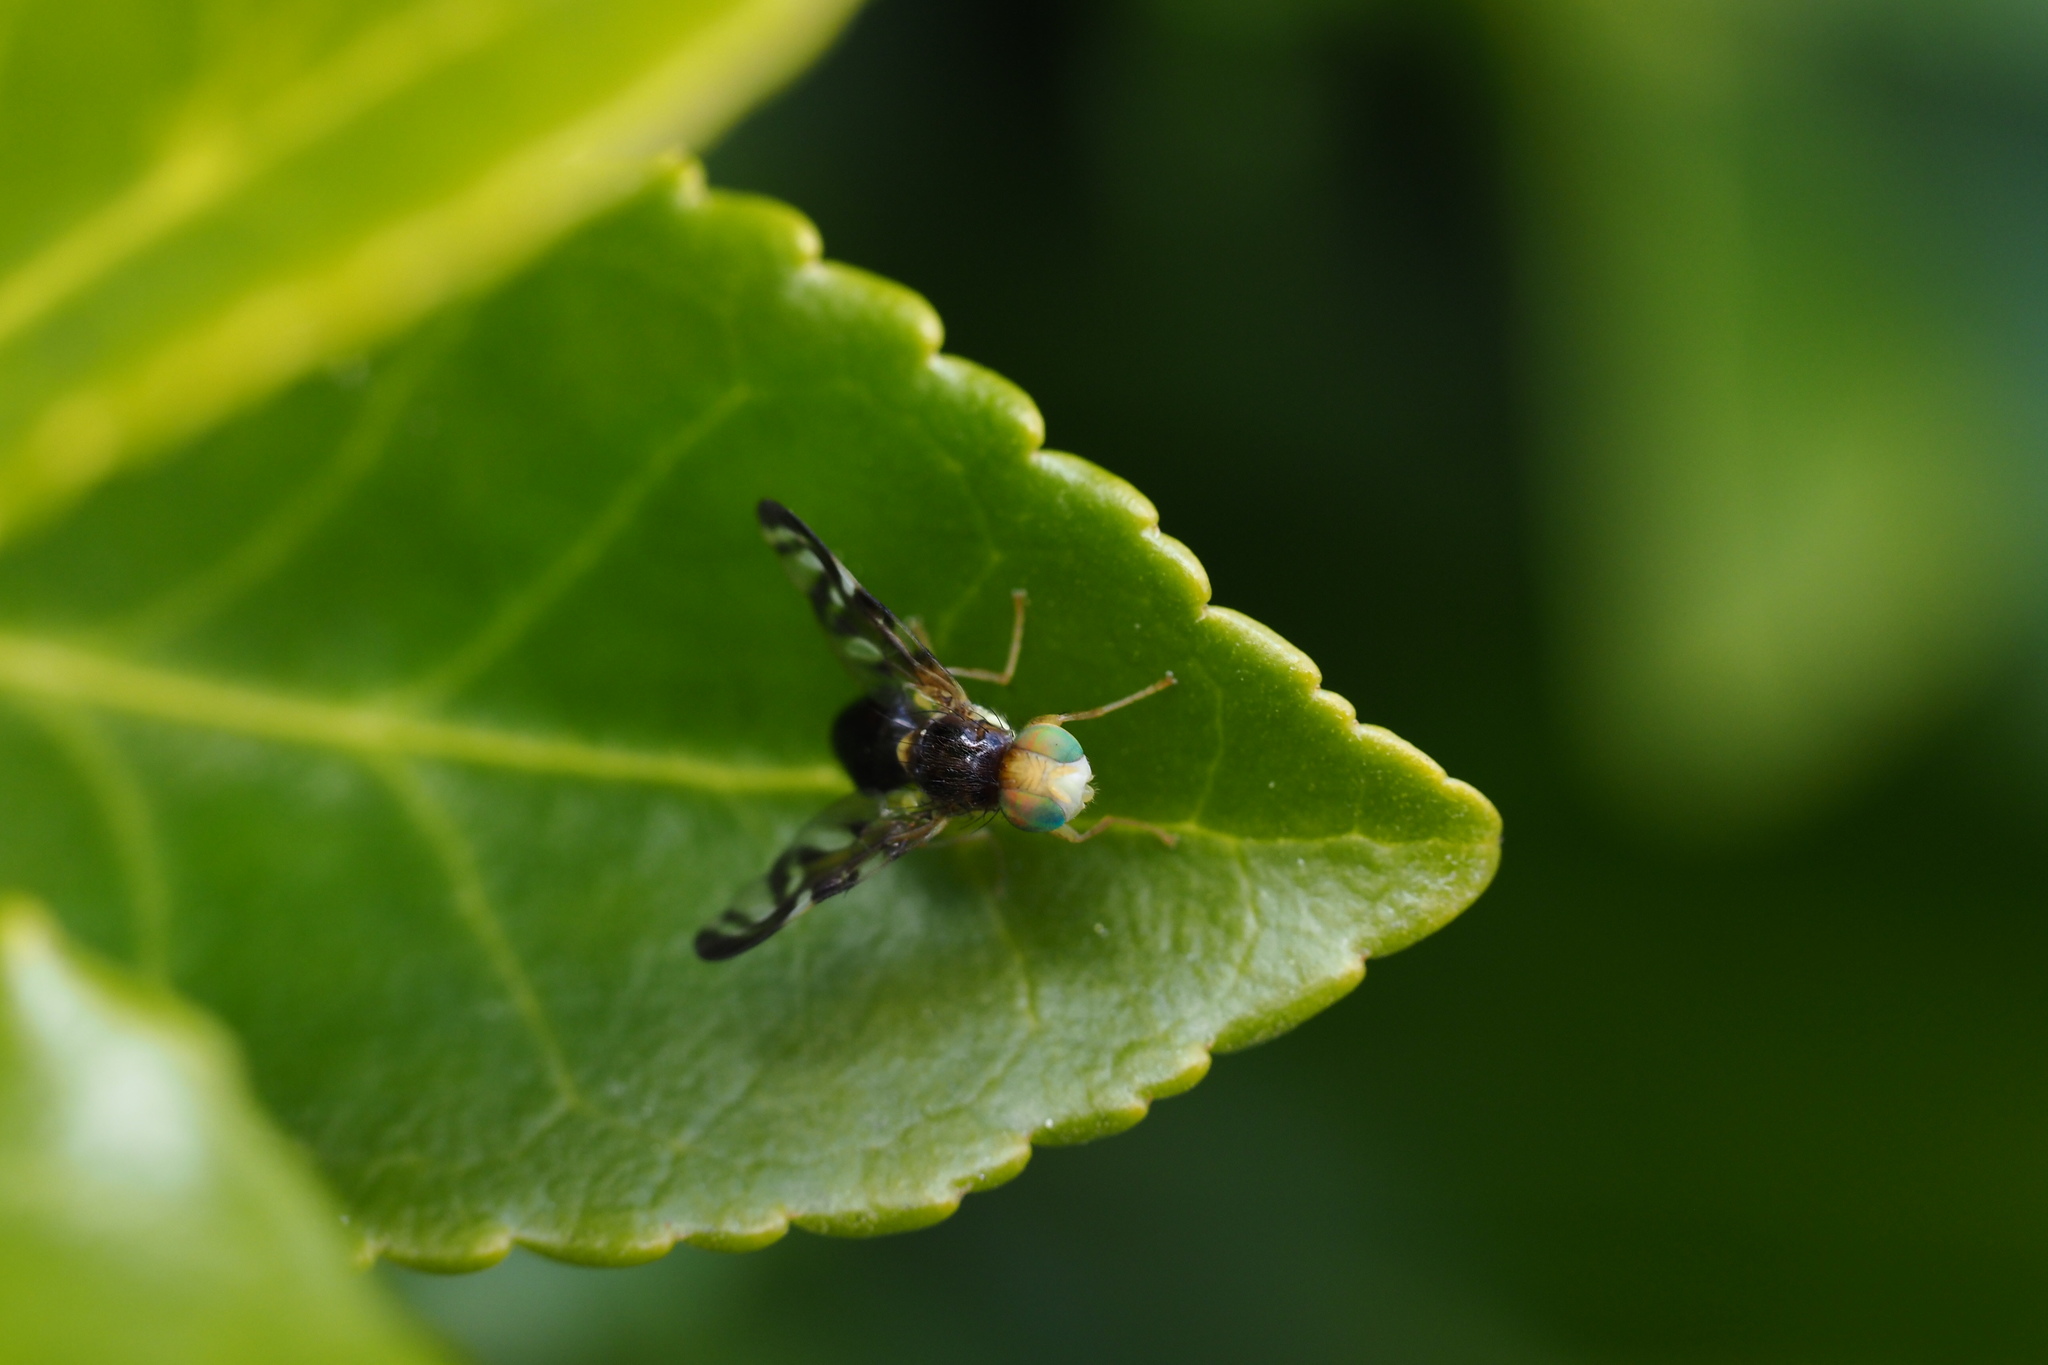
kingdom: Animalia
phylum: Arthropoda
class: Insecta
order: Diptera
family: Tephritidae
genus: Euleia
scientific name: Euleia heraclei
